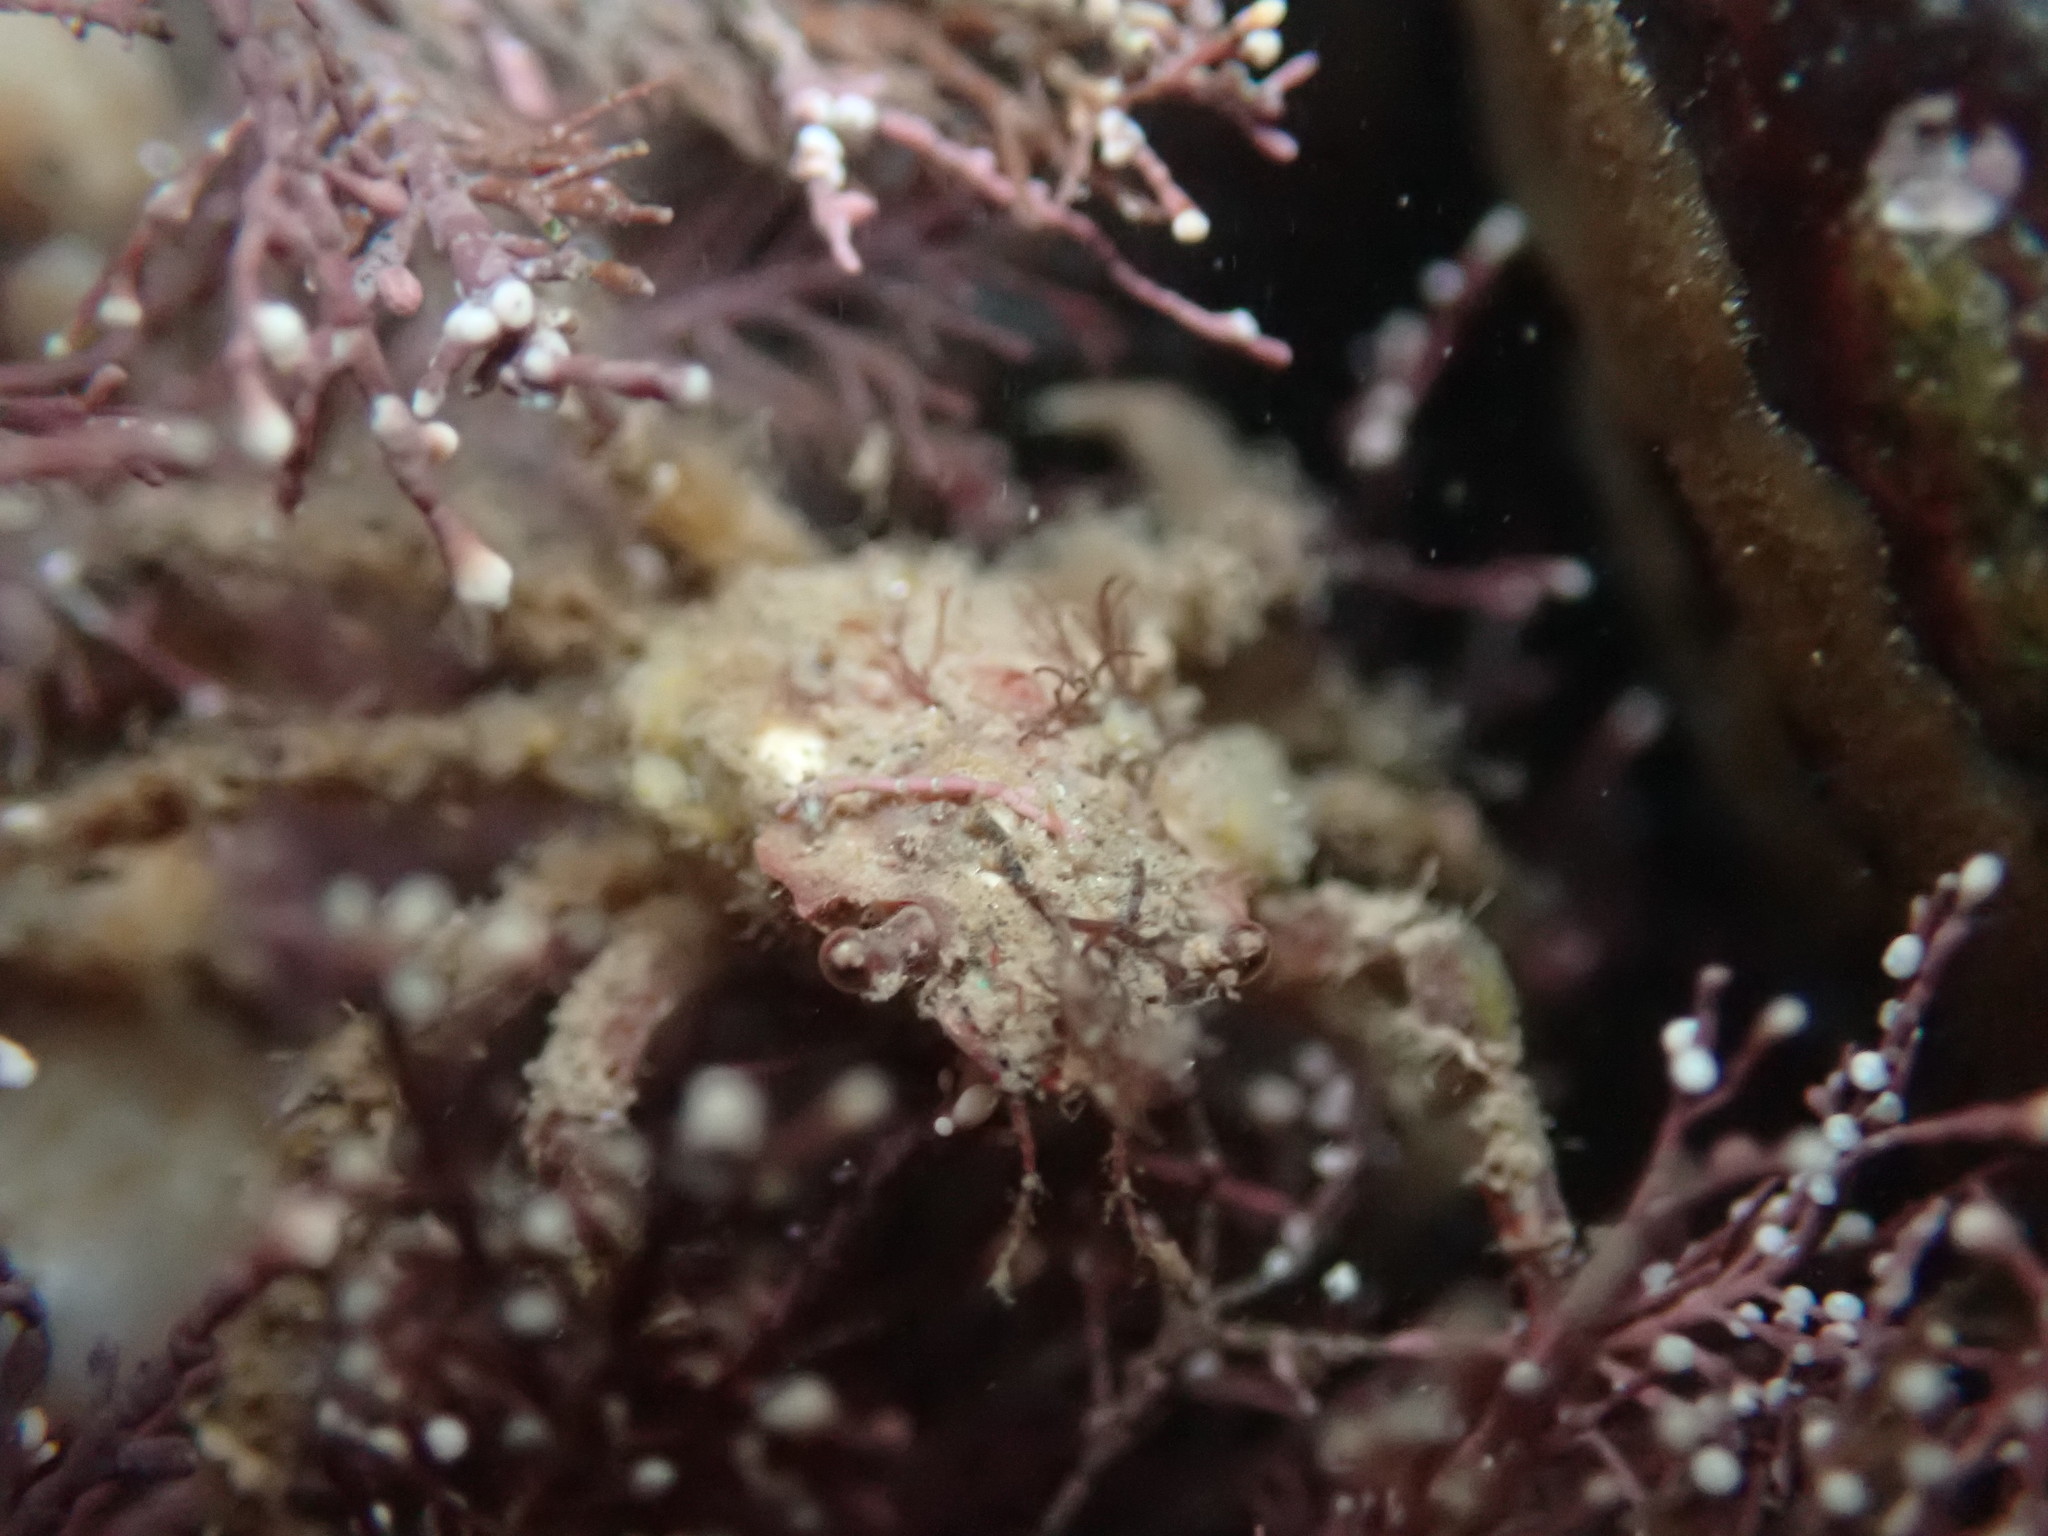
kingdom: Animalia
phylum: Arthropoda
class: Malacostraca
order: Decapoda
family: Oregoniidae
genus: Hyas
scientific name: Hyas coarctatus
